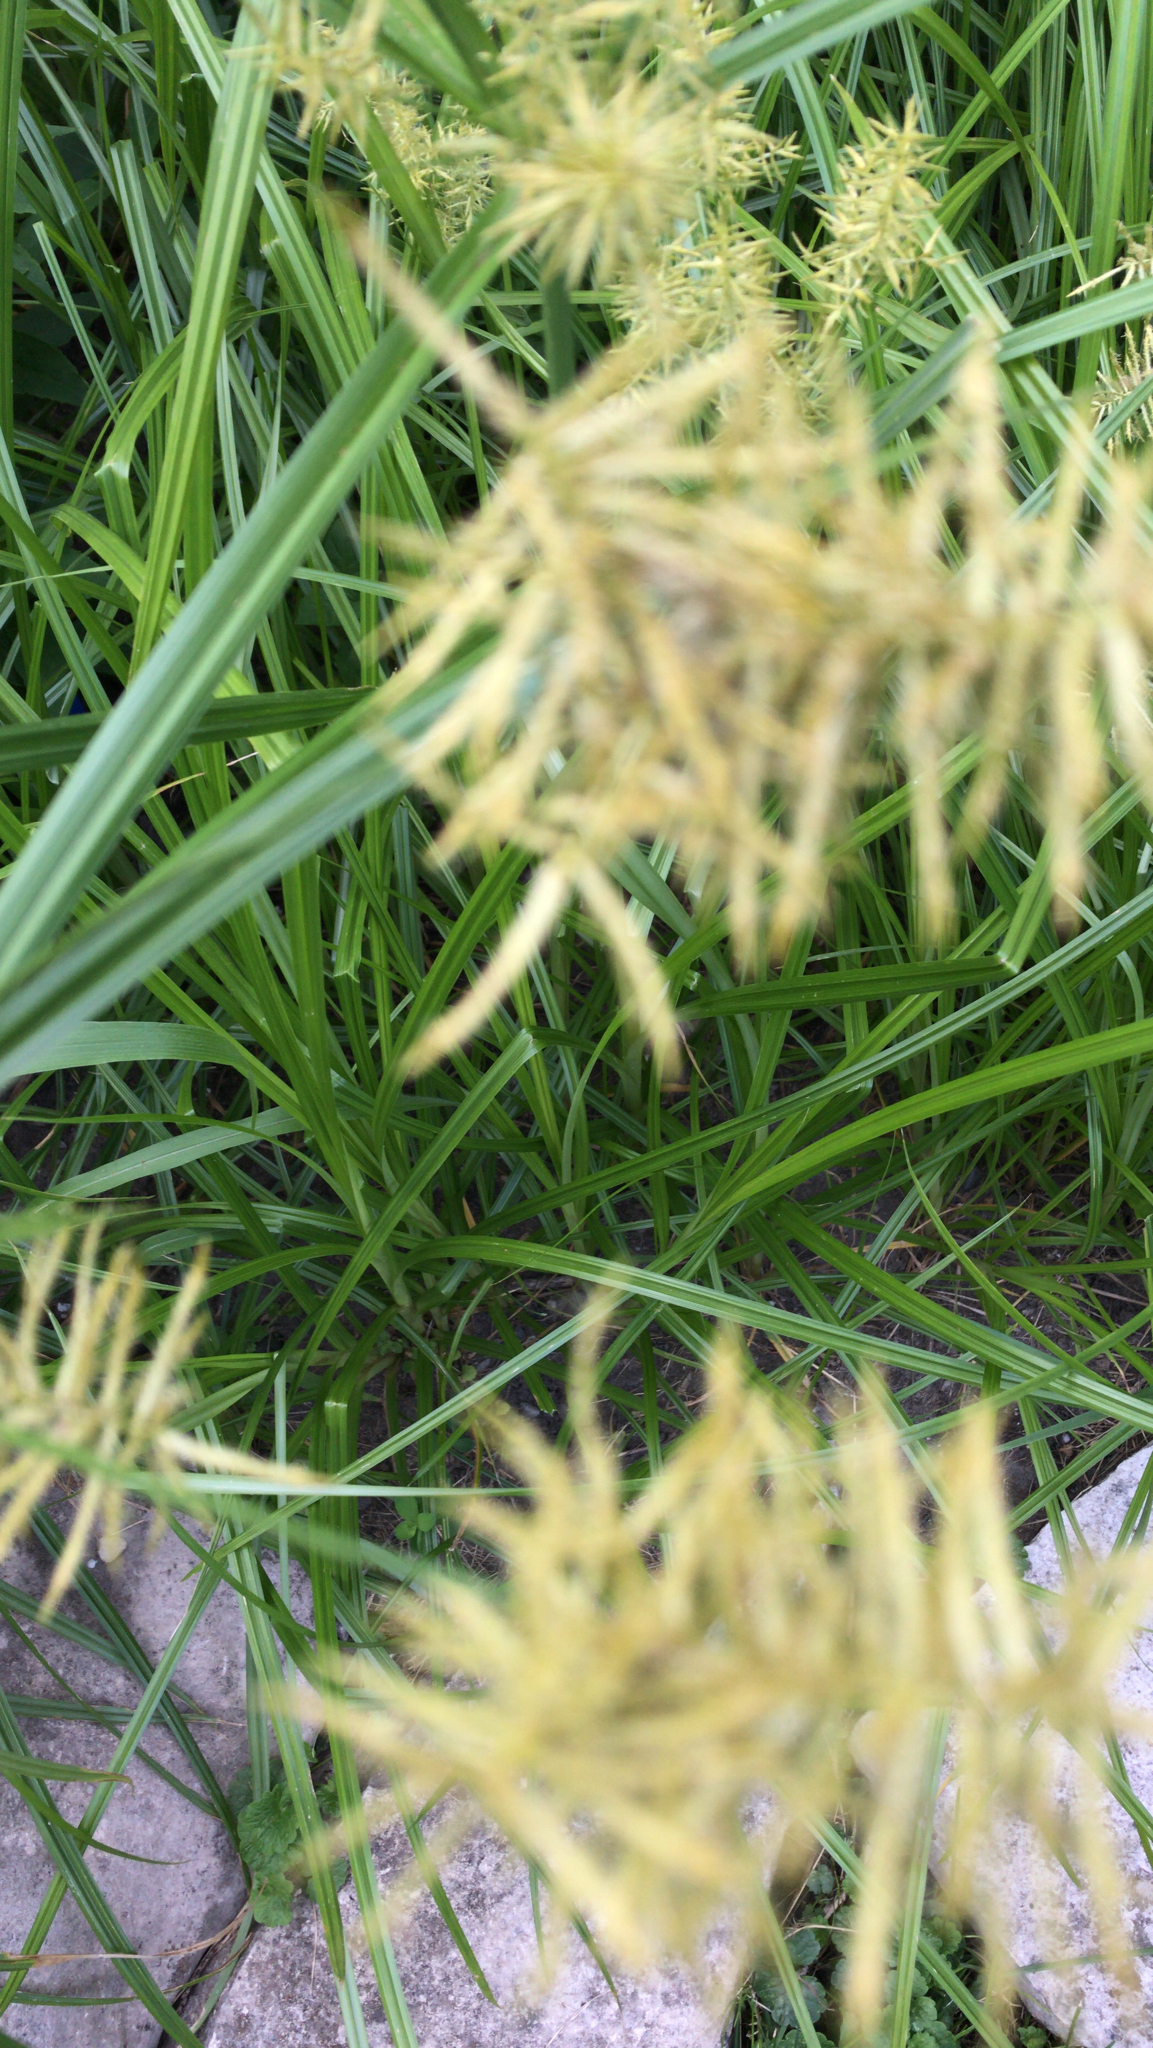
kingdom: Plantae
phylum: Tracheophyta
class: Liliopsida
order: Poales
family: Cyperaceae
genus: Cyperus
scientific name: Cyperus esculentus
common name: Yellow nutsedge
